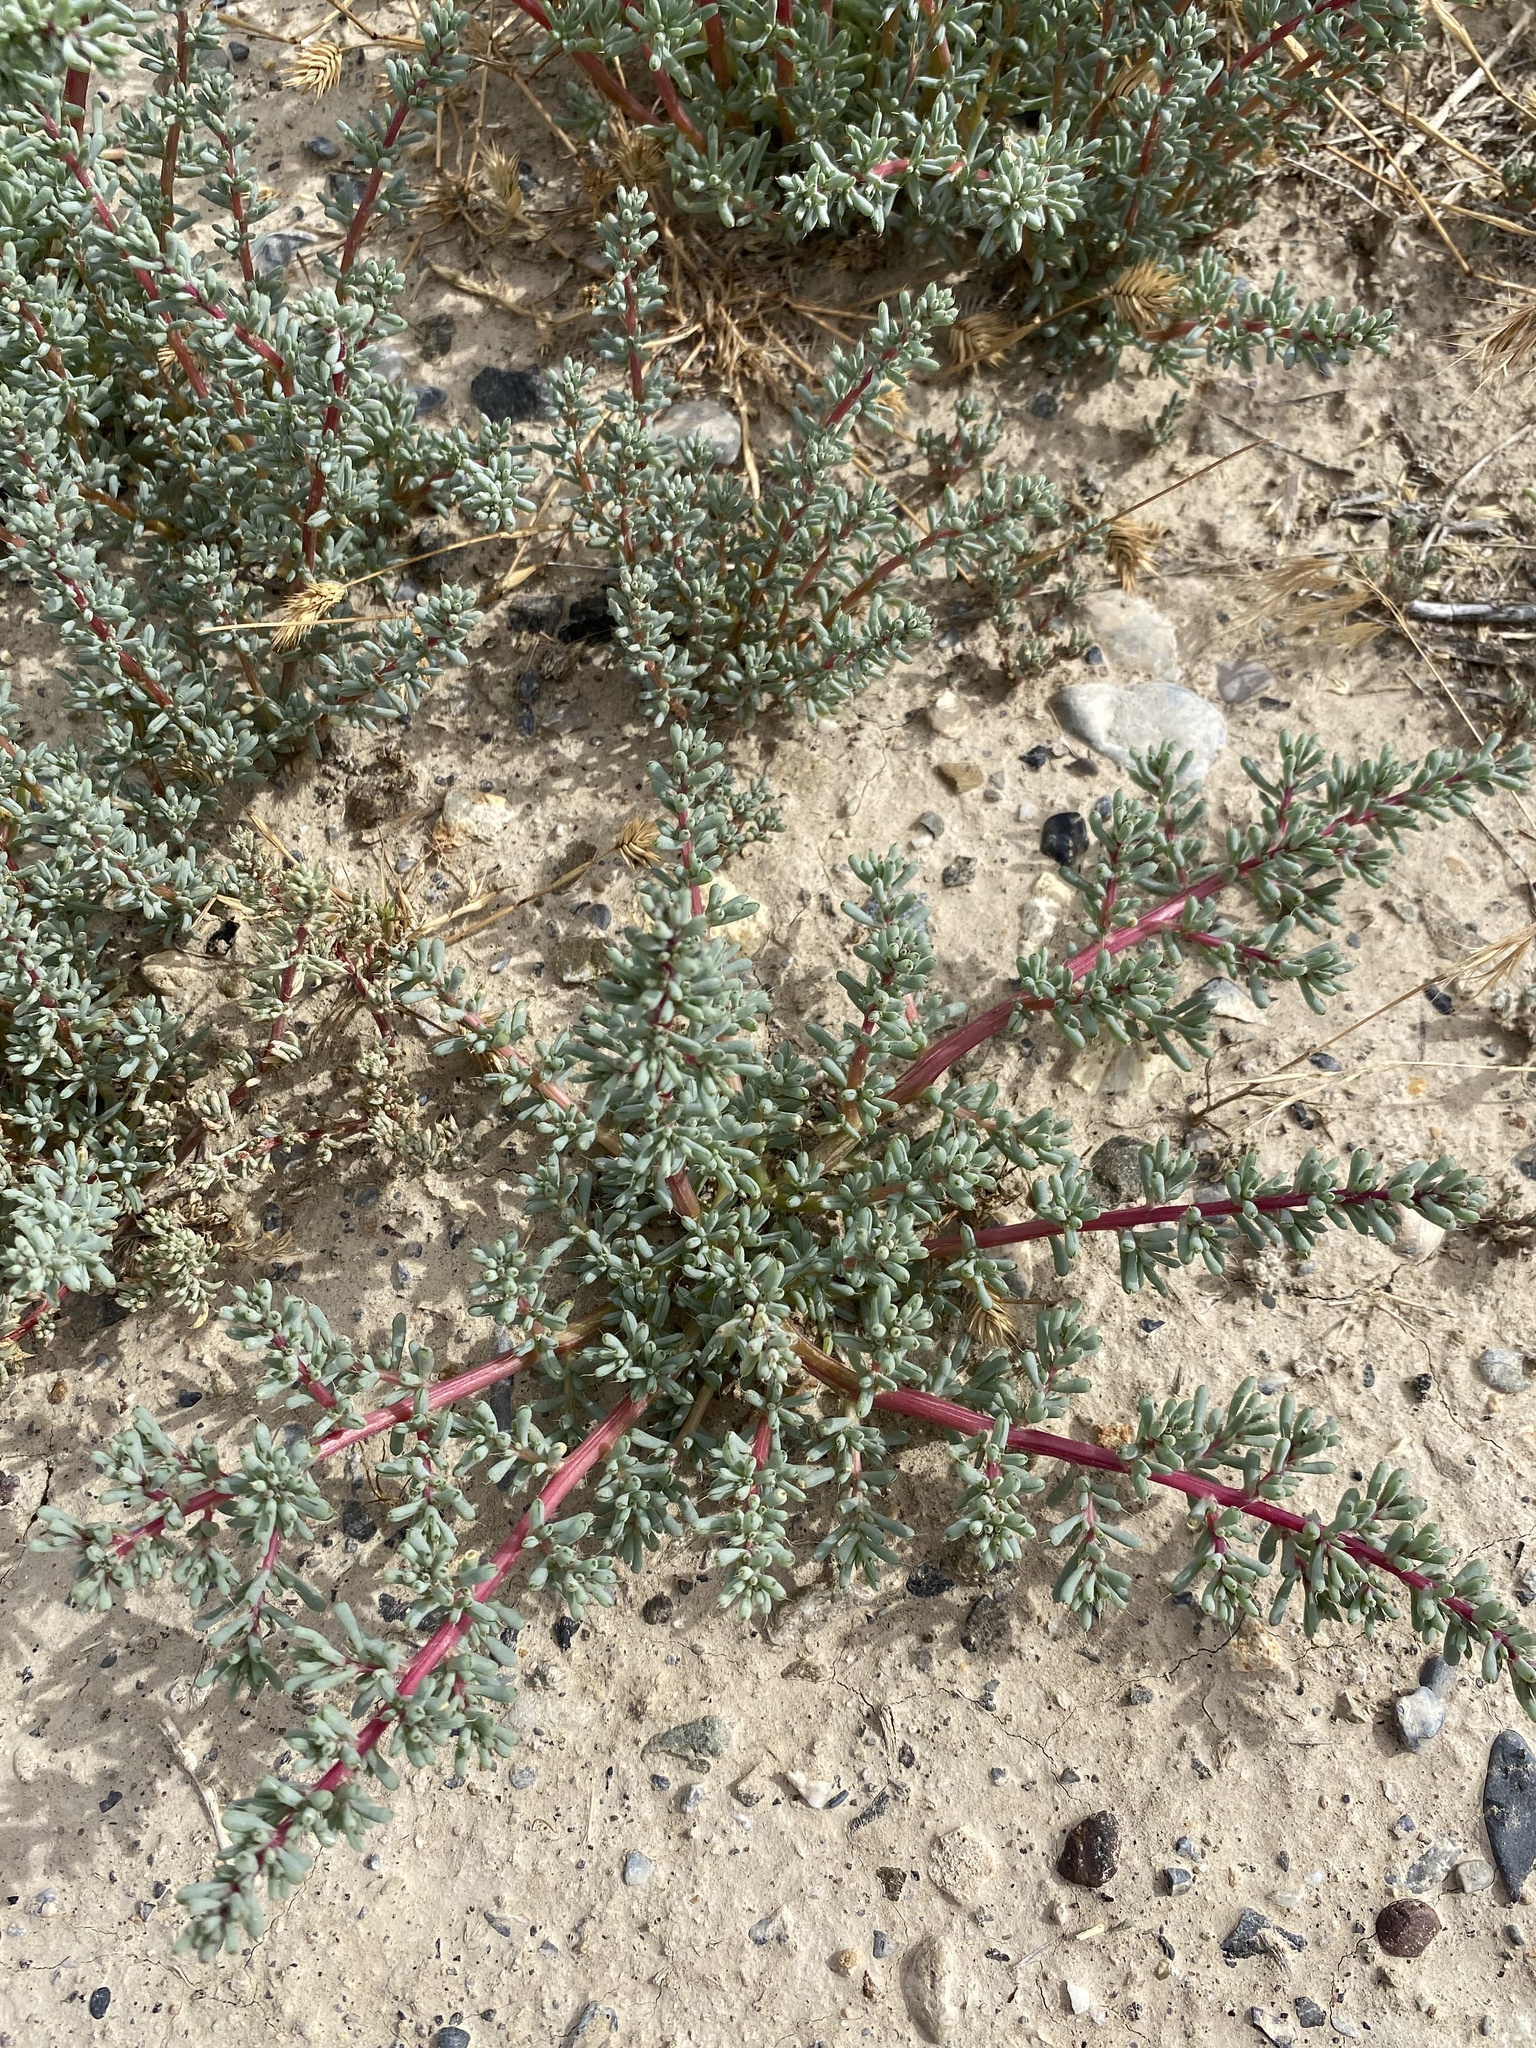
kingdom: Plantae
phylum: Tracheophyta
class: Magnoliopsida
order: Caryophyllales
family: Amaranthaceae
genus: Halogeton
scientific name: Halogeton glomeratus
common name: Saltlover
